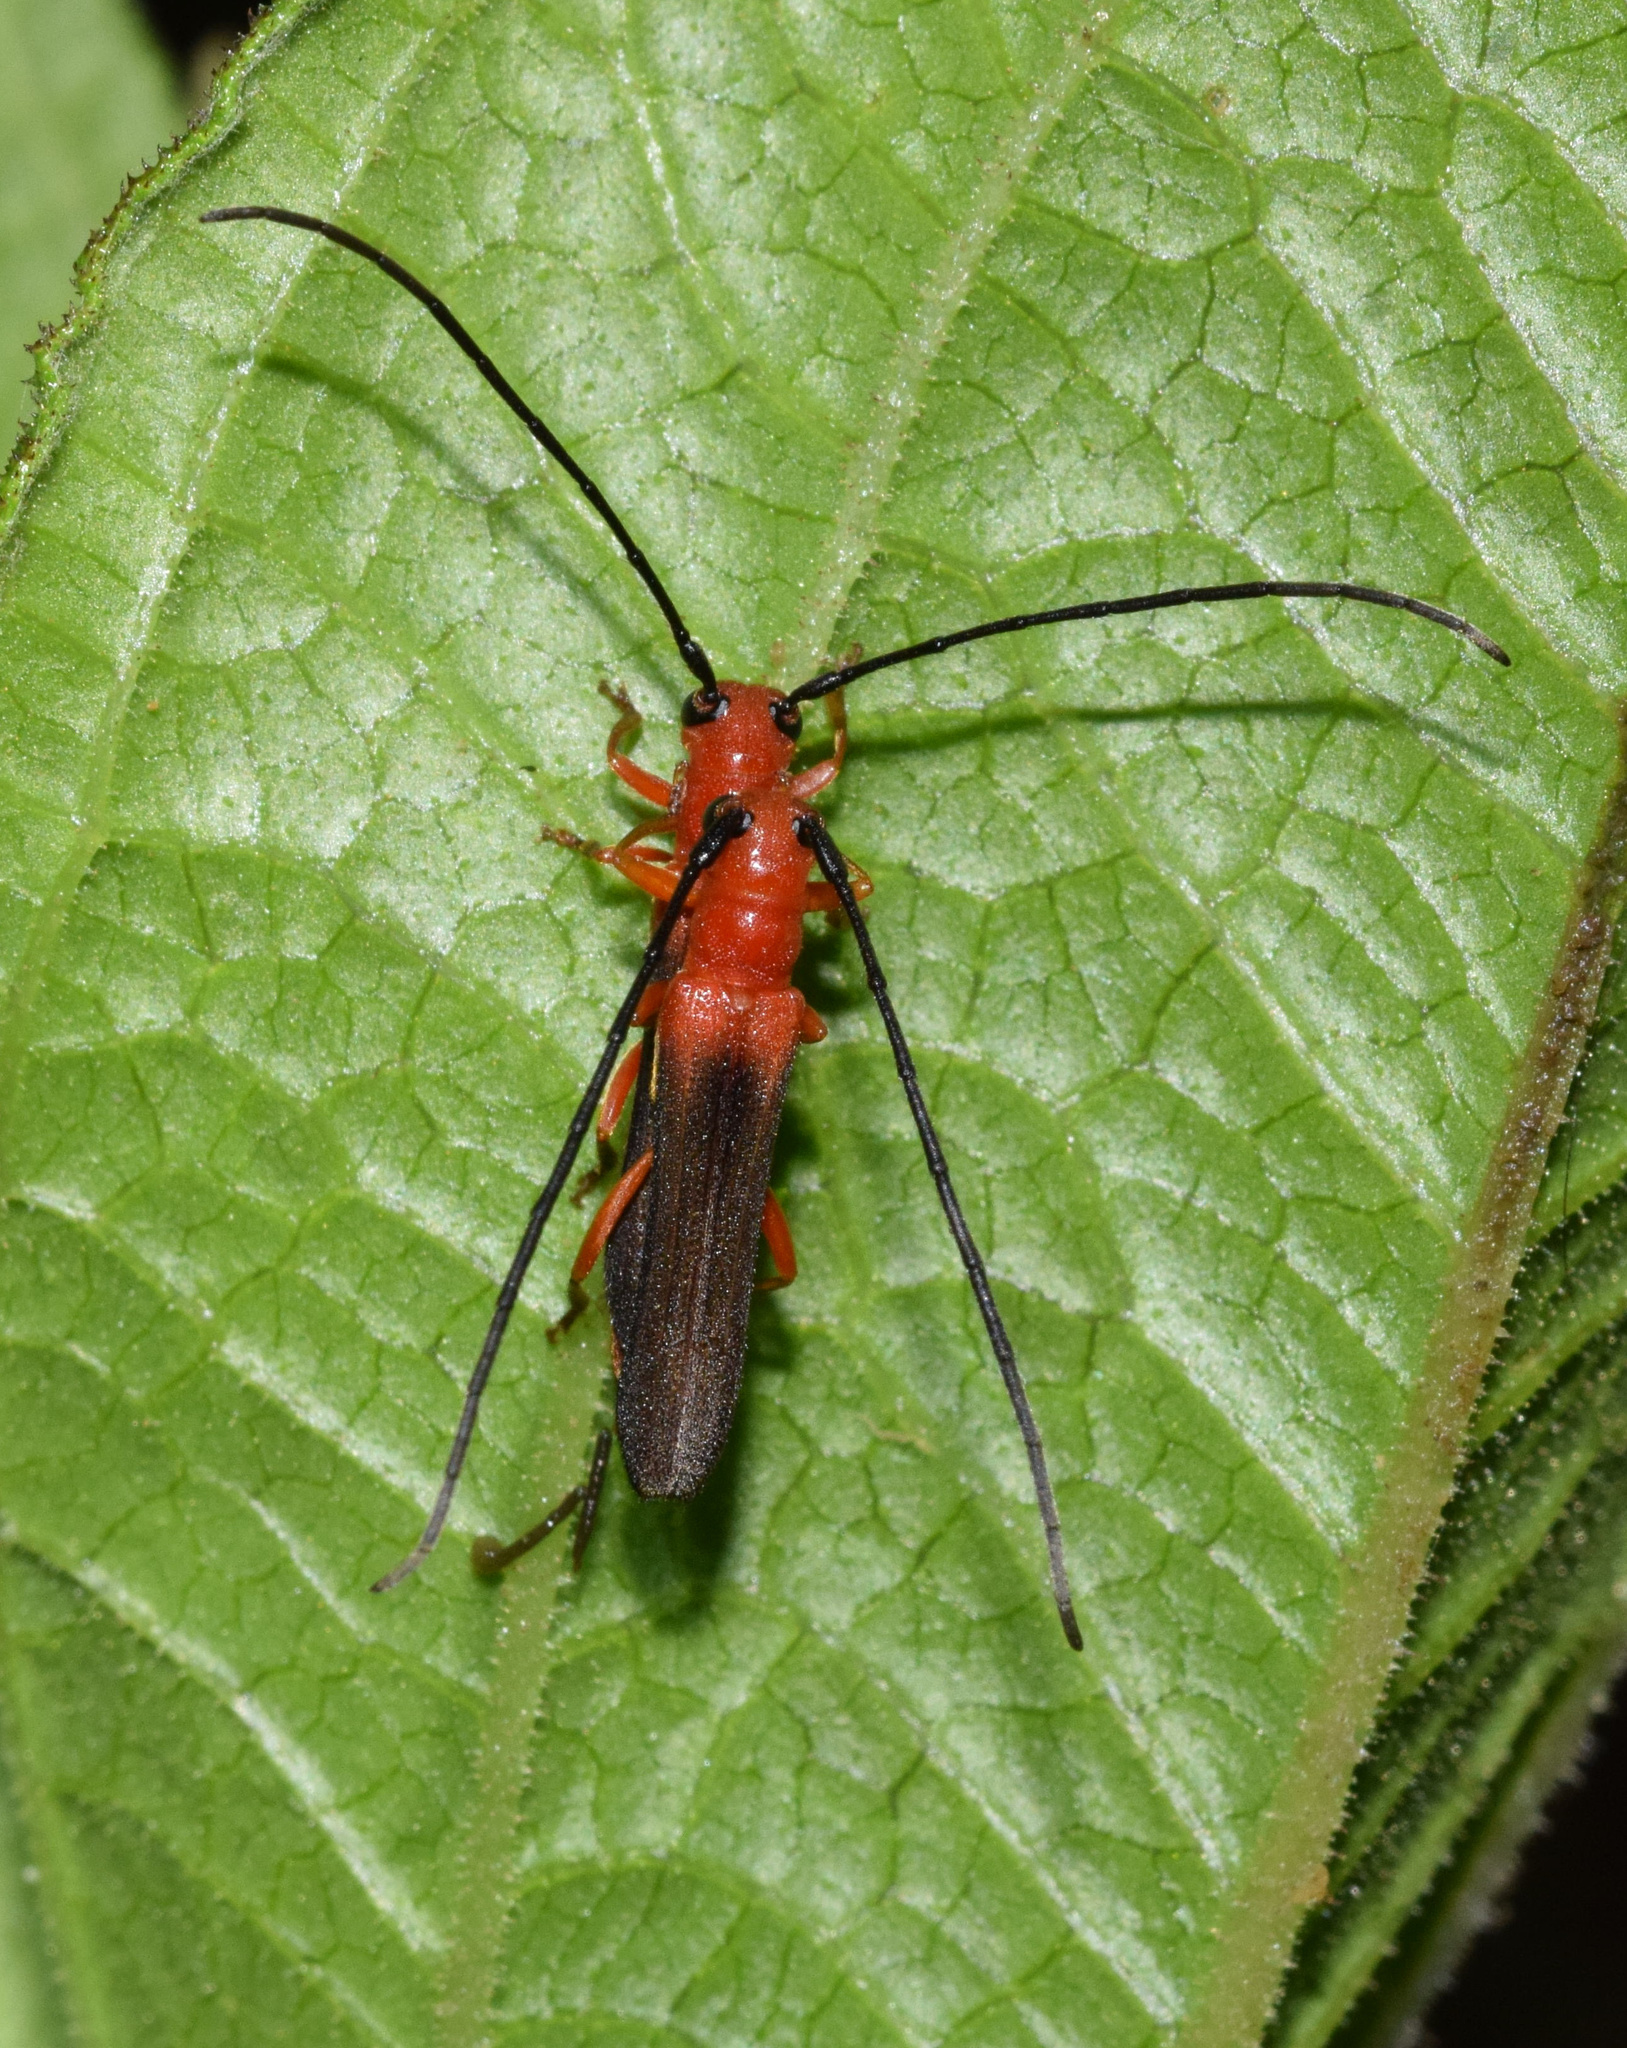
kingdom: Animalia
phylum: Arthropoda
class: Insecta
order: Coleoptera
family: Cerambycidae
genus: Oberea
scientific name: Oberea trigonalis
